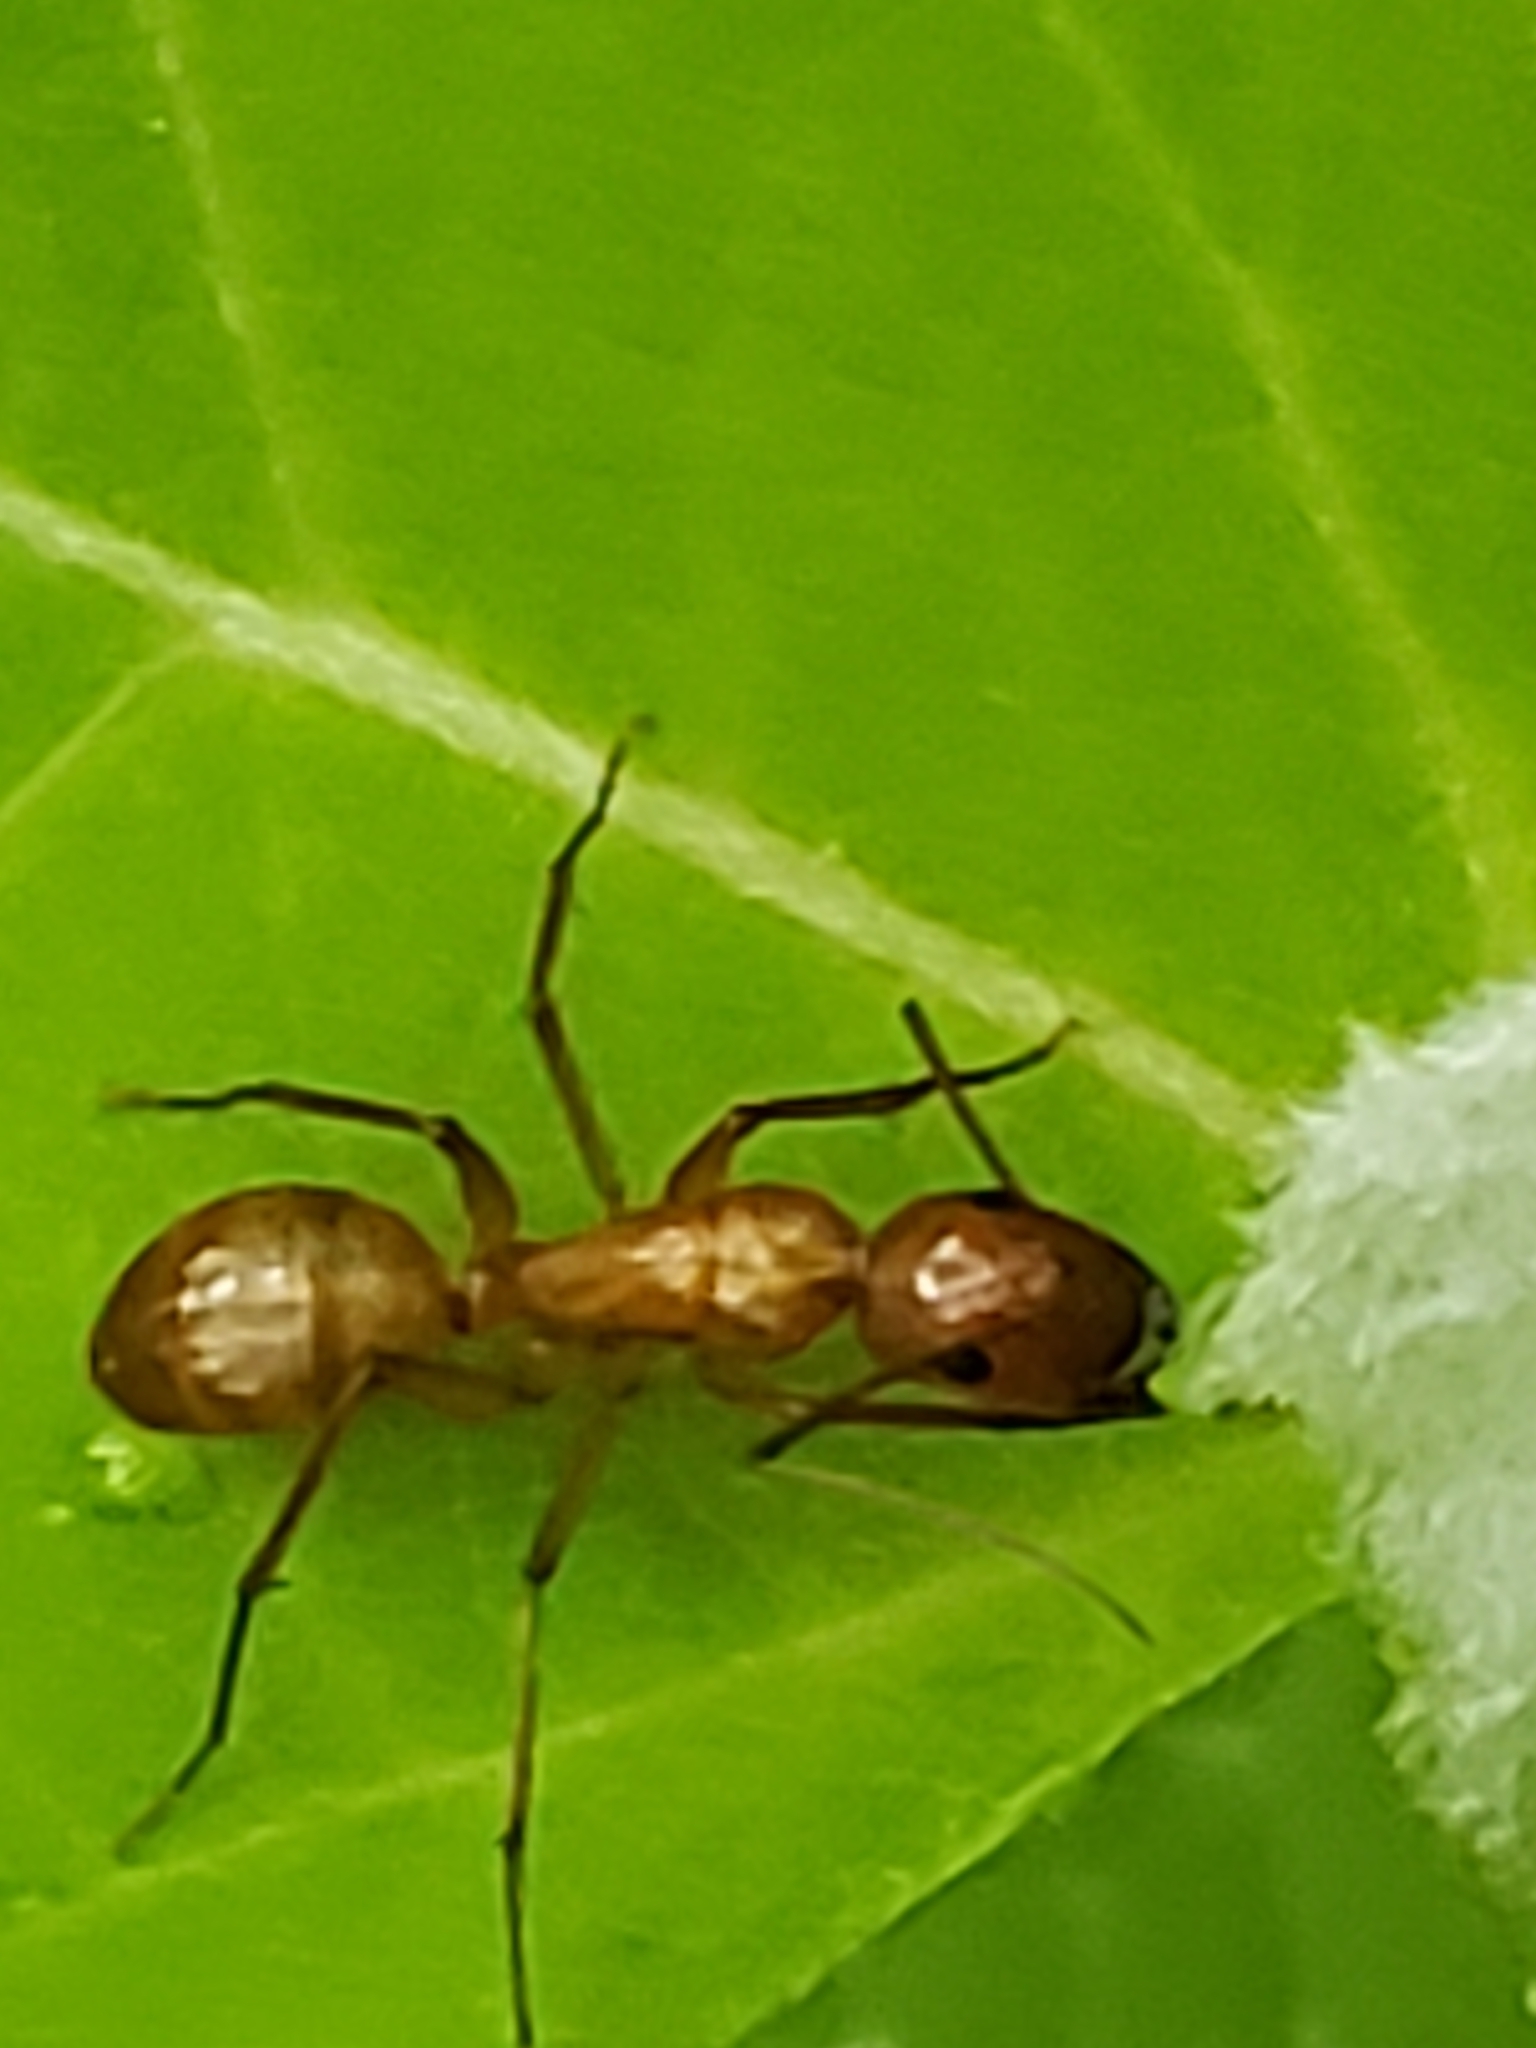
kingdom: Animalia
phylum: Arthropoda
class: Insecta
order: Hymenoptera
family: Formicidae
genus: Camponotus
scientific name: Camponotus castaneus
